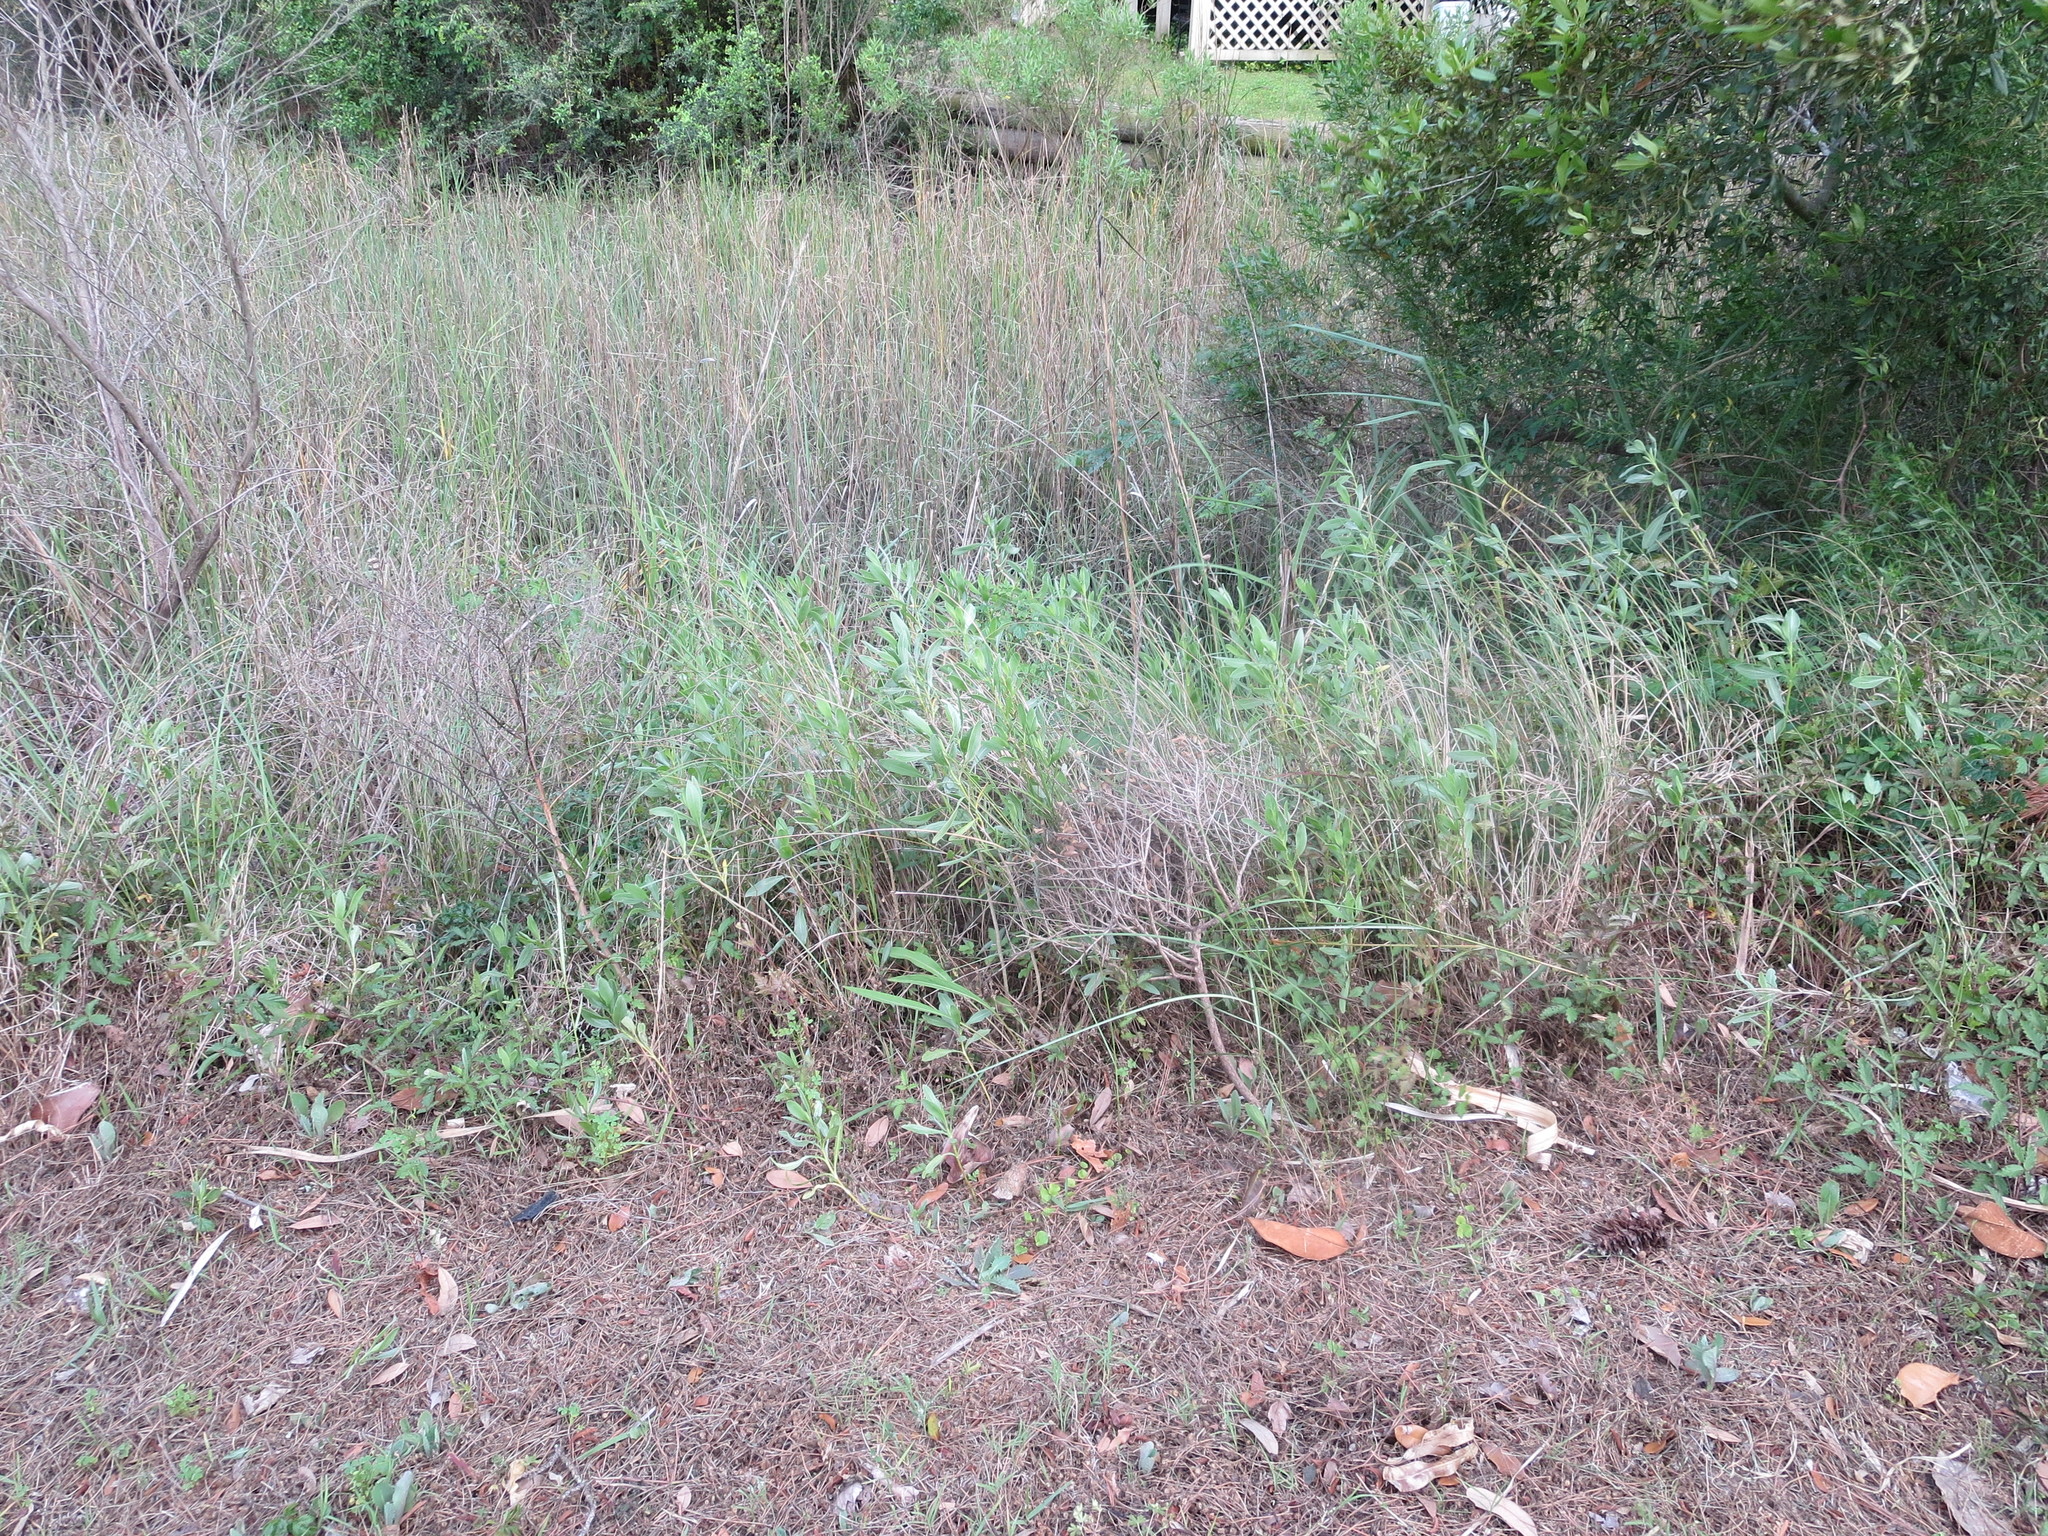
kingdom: Plantae
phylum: Tracheophyta
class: Magnoliopsida
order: Asterales
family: Asteraceae
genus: Borrichia
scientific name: Borrichia frutescens
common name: Sea oxeye
